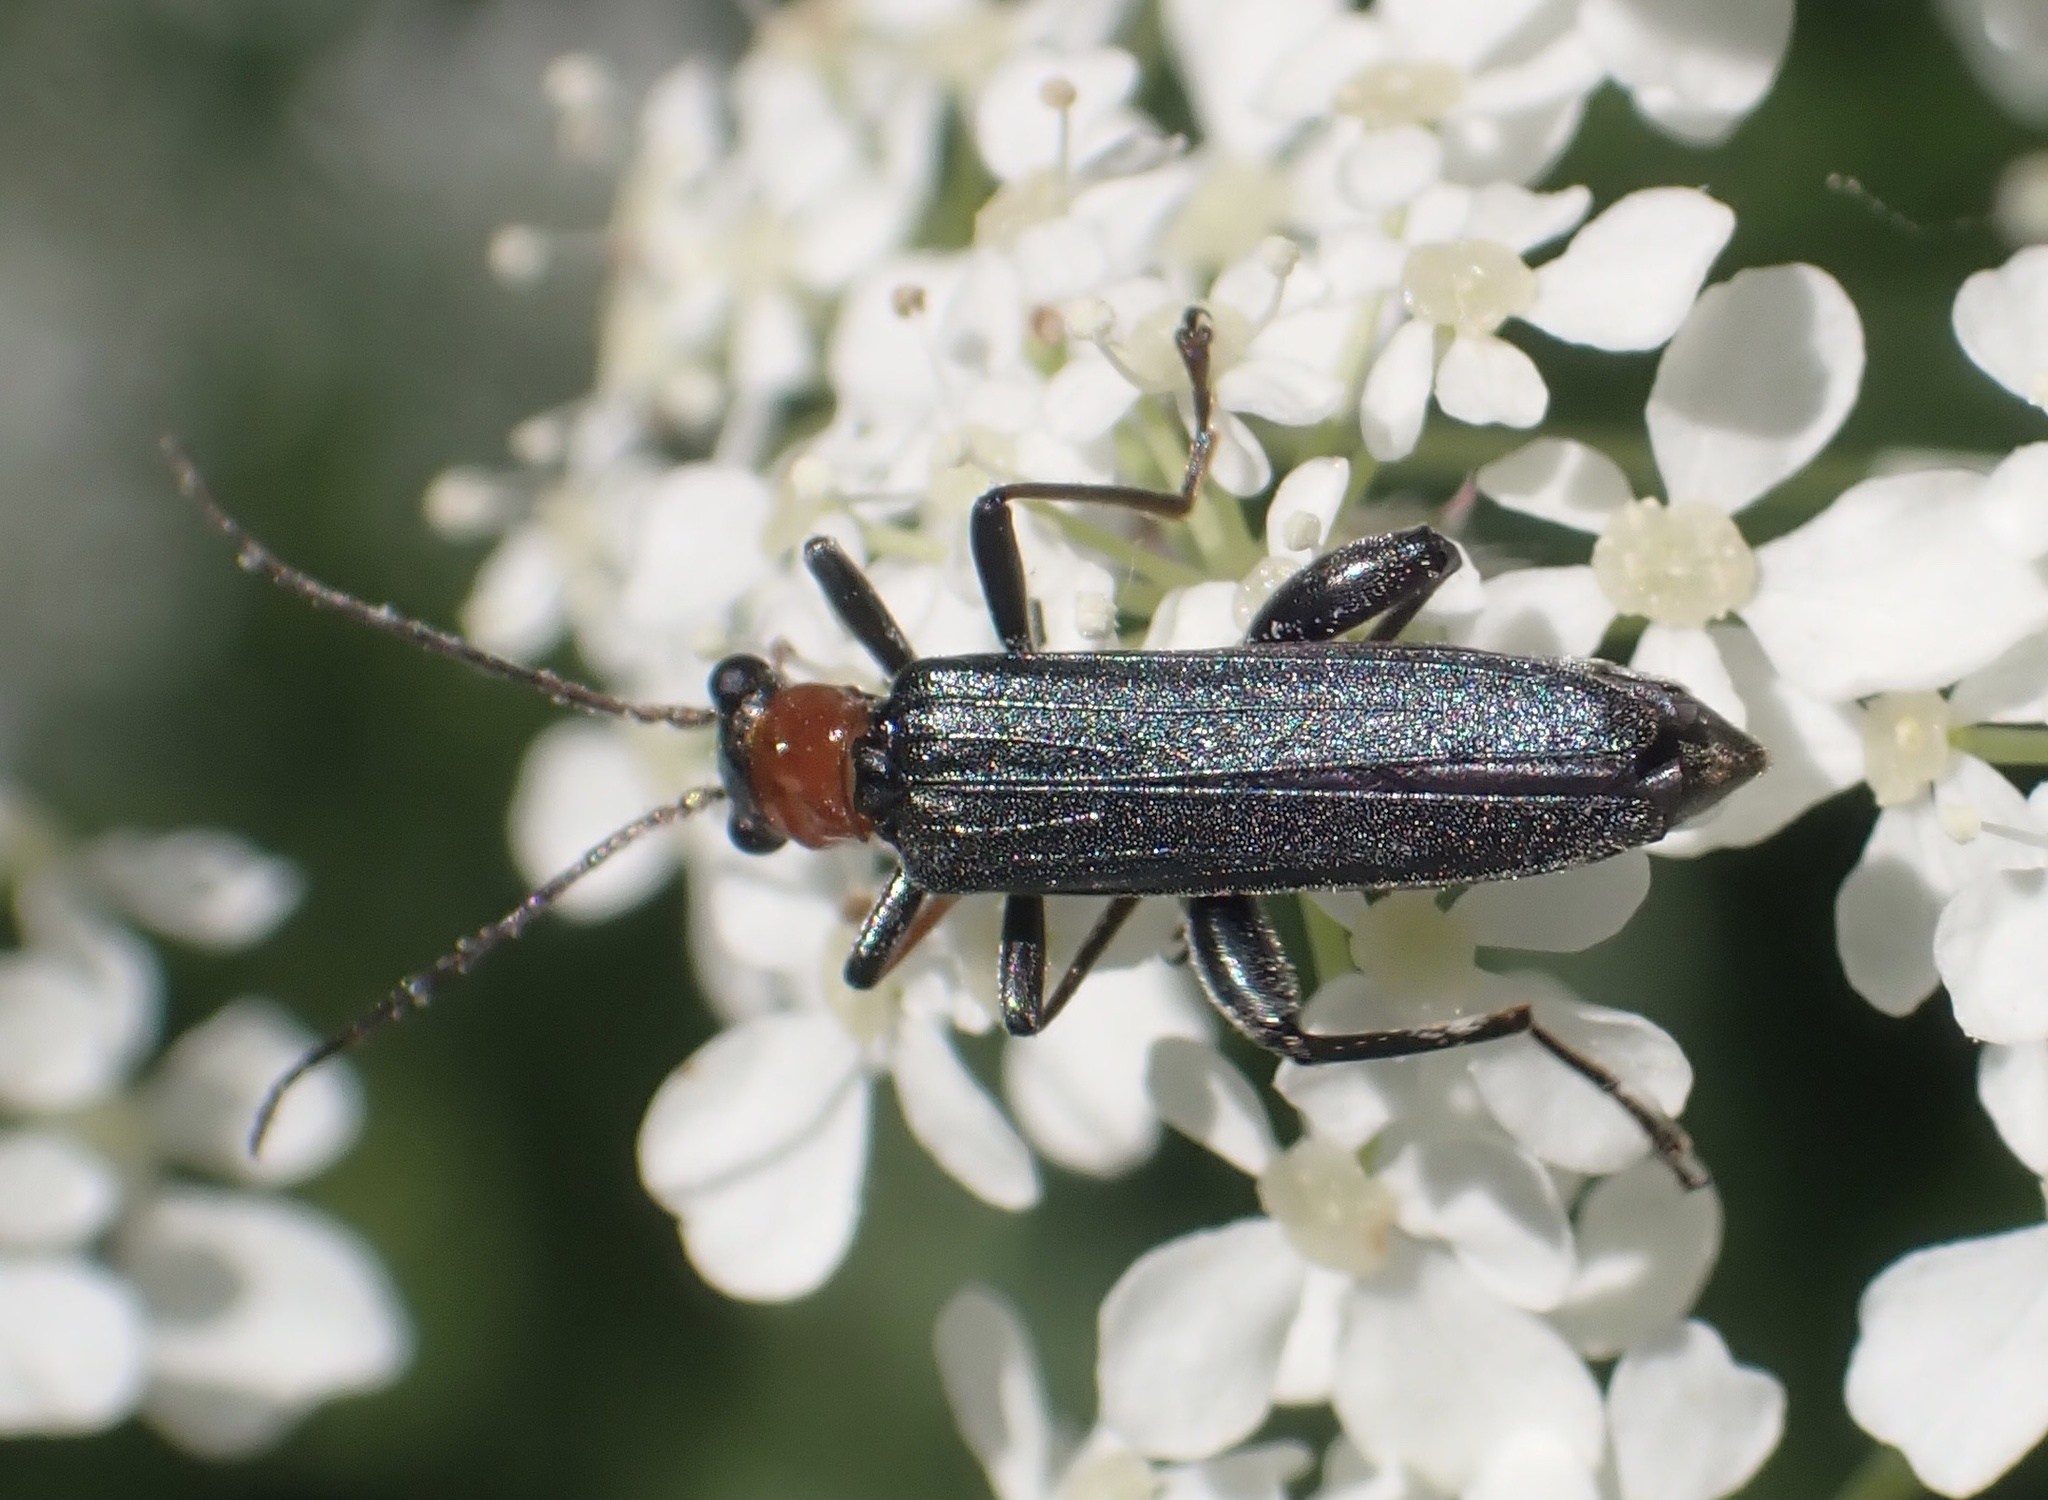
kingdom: Animalia
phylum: Arthropoda
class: Insecta
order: Coleoptera
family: Oedemeridae
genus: Oedemera
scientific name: Oedemera croceicollis
